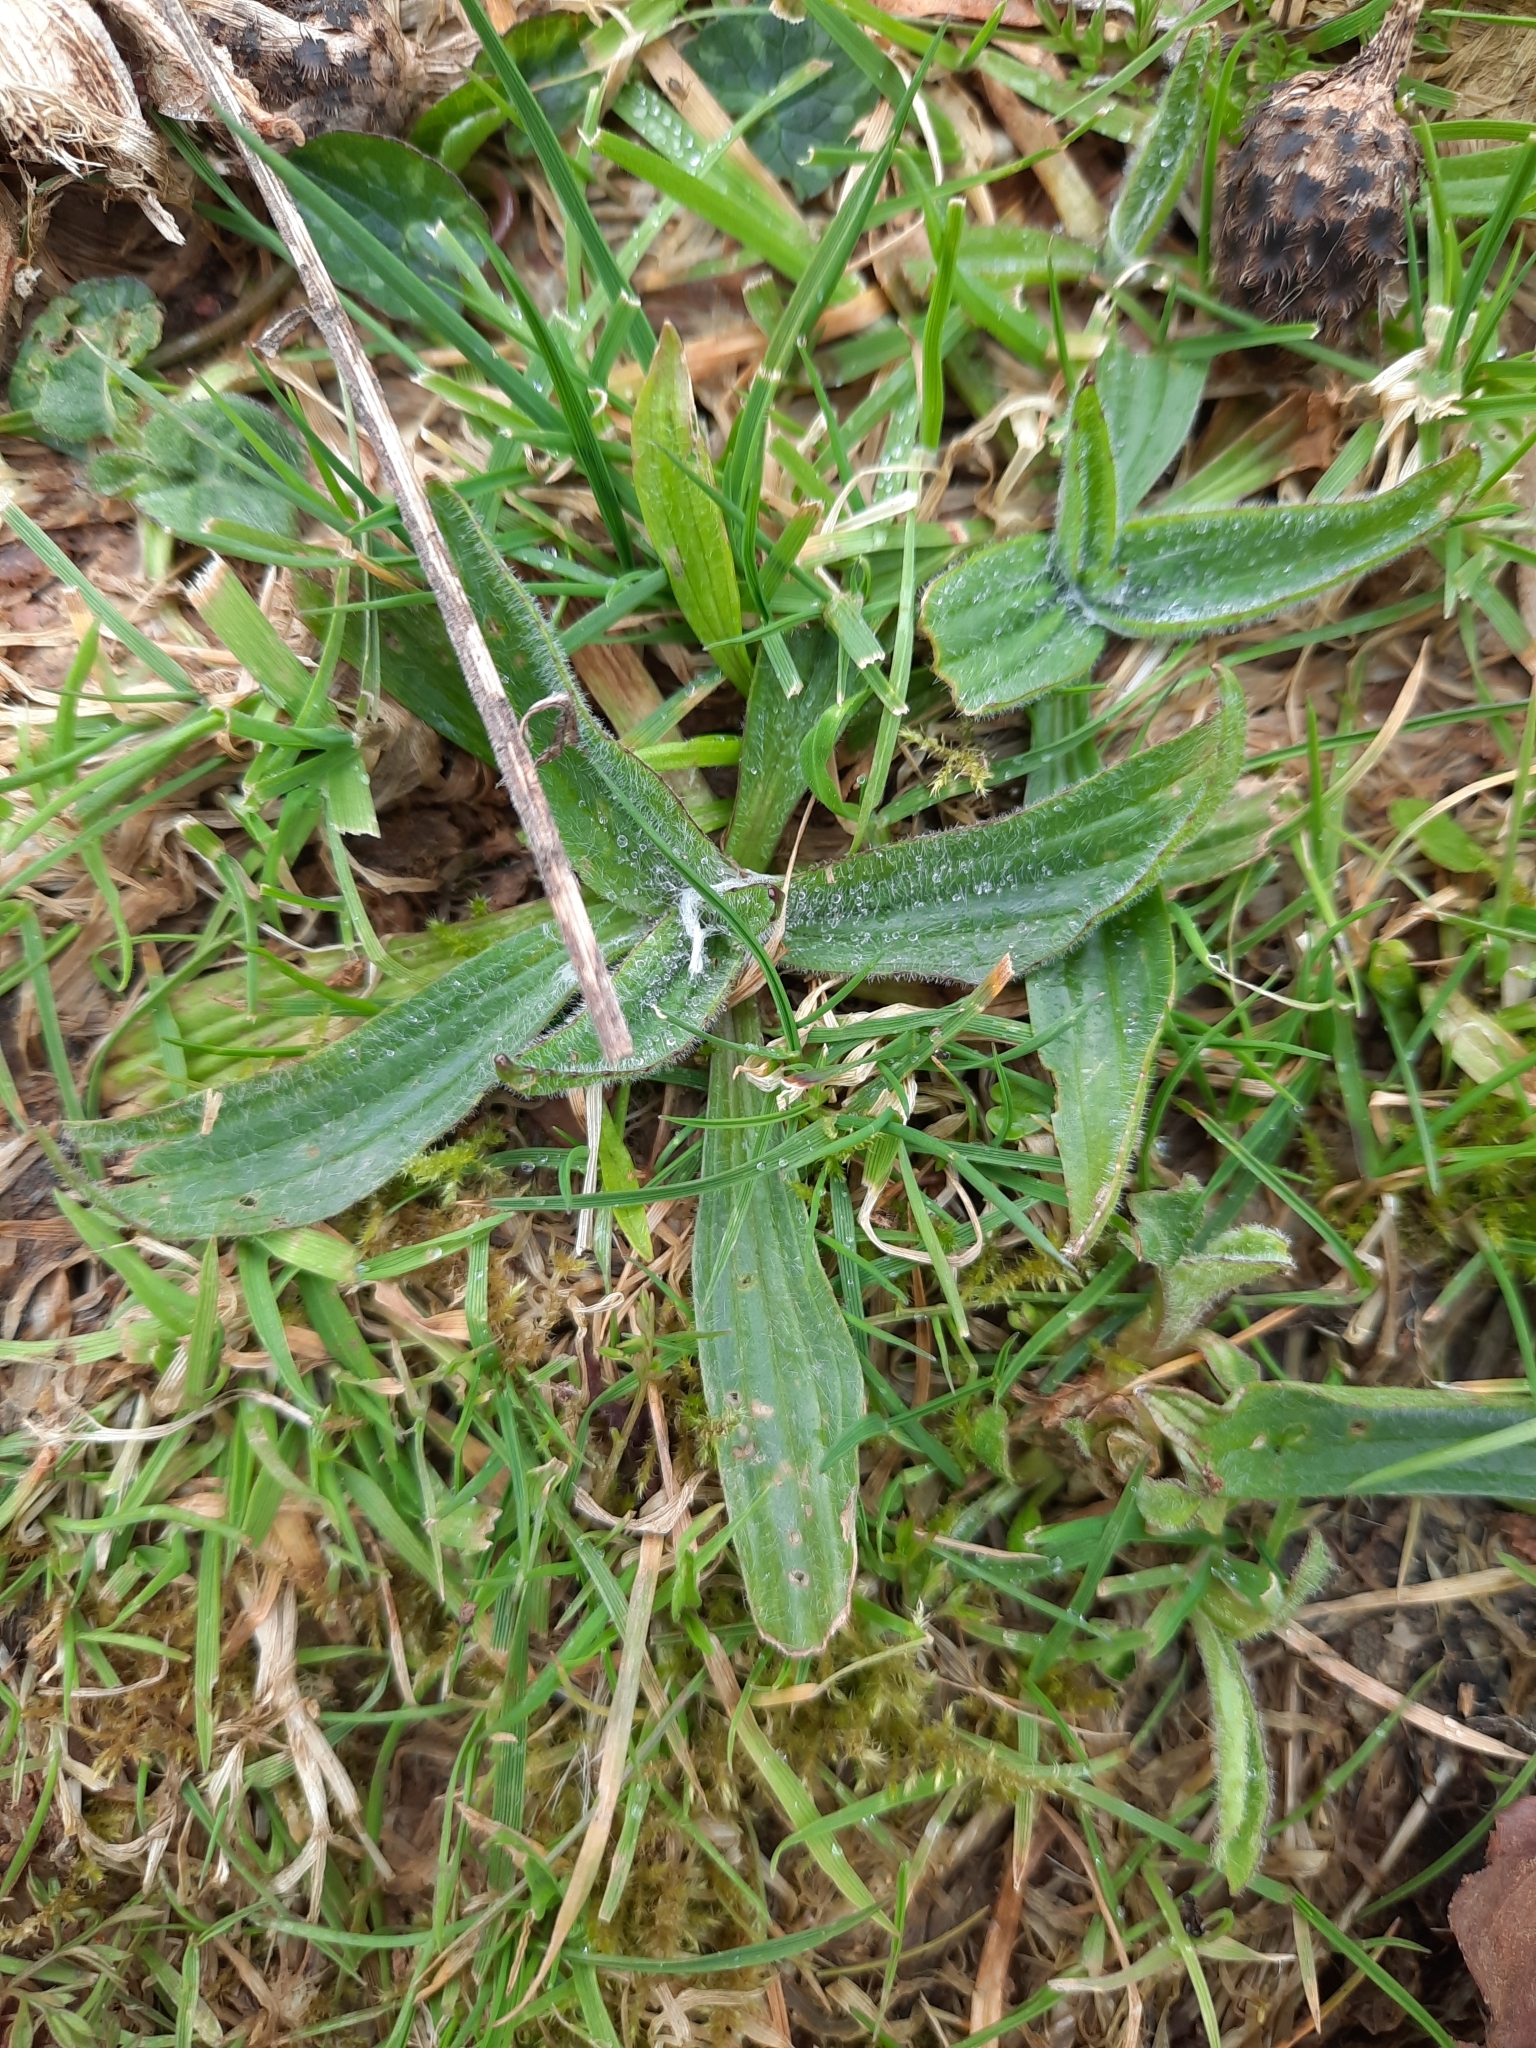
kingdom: Plantae
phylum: Tracheophyta
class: Magnoliopsida
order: Lamiales
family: Plantaginaceae
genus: Plantago
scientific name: Plantago lanceolata
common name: Ribwort plantain
